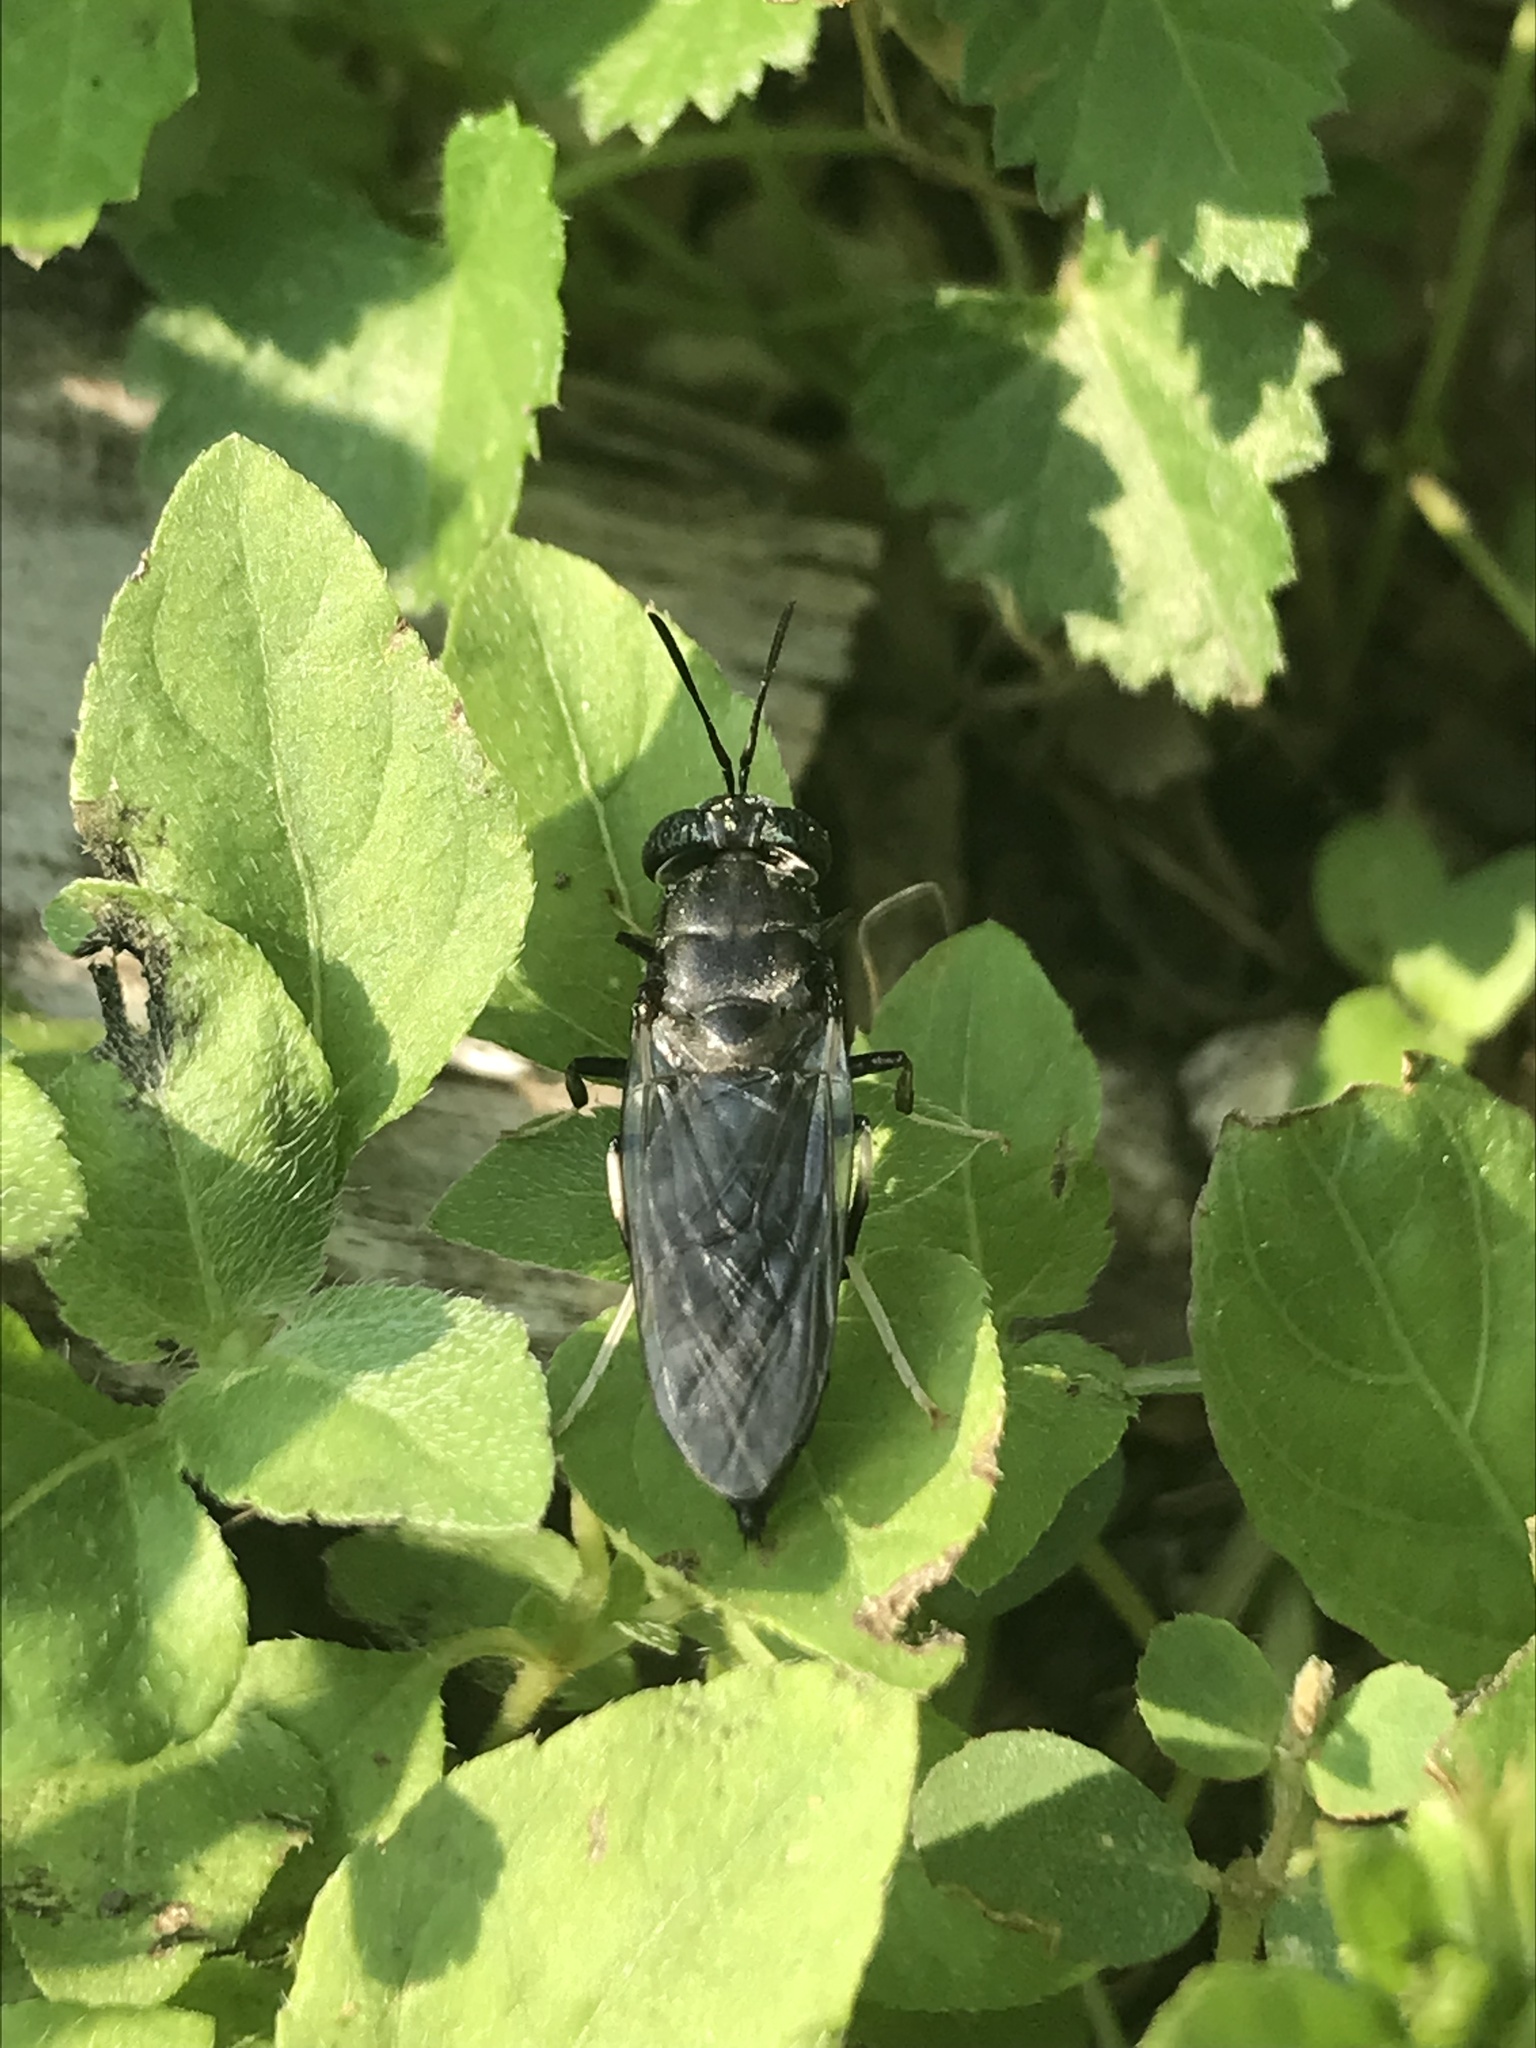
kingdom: Animalia
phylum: Arthropoda
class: Insecta
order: Diptera
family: Stratiomyidae
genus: Hermetia
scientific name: Hermetia illucens
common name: Black soldier fly
